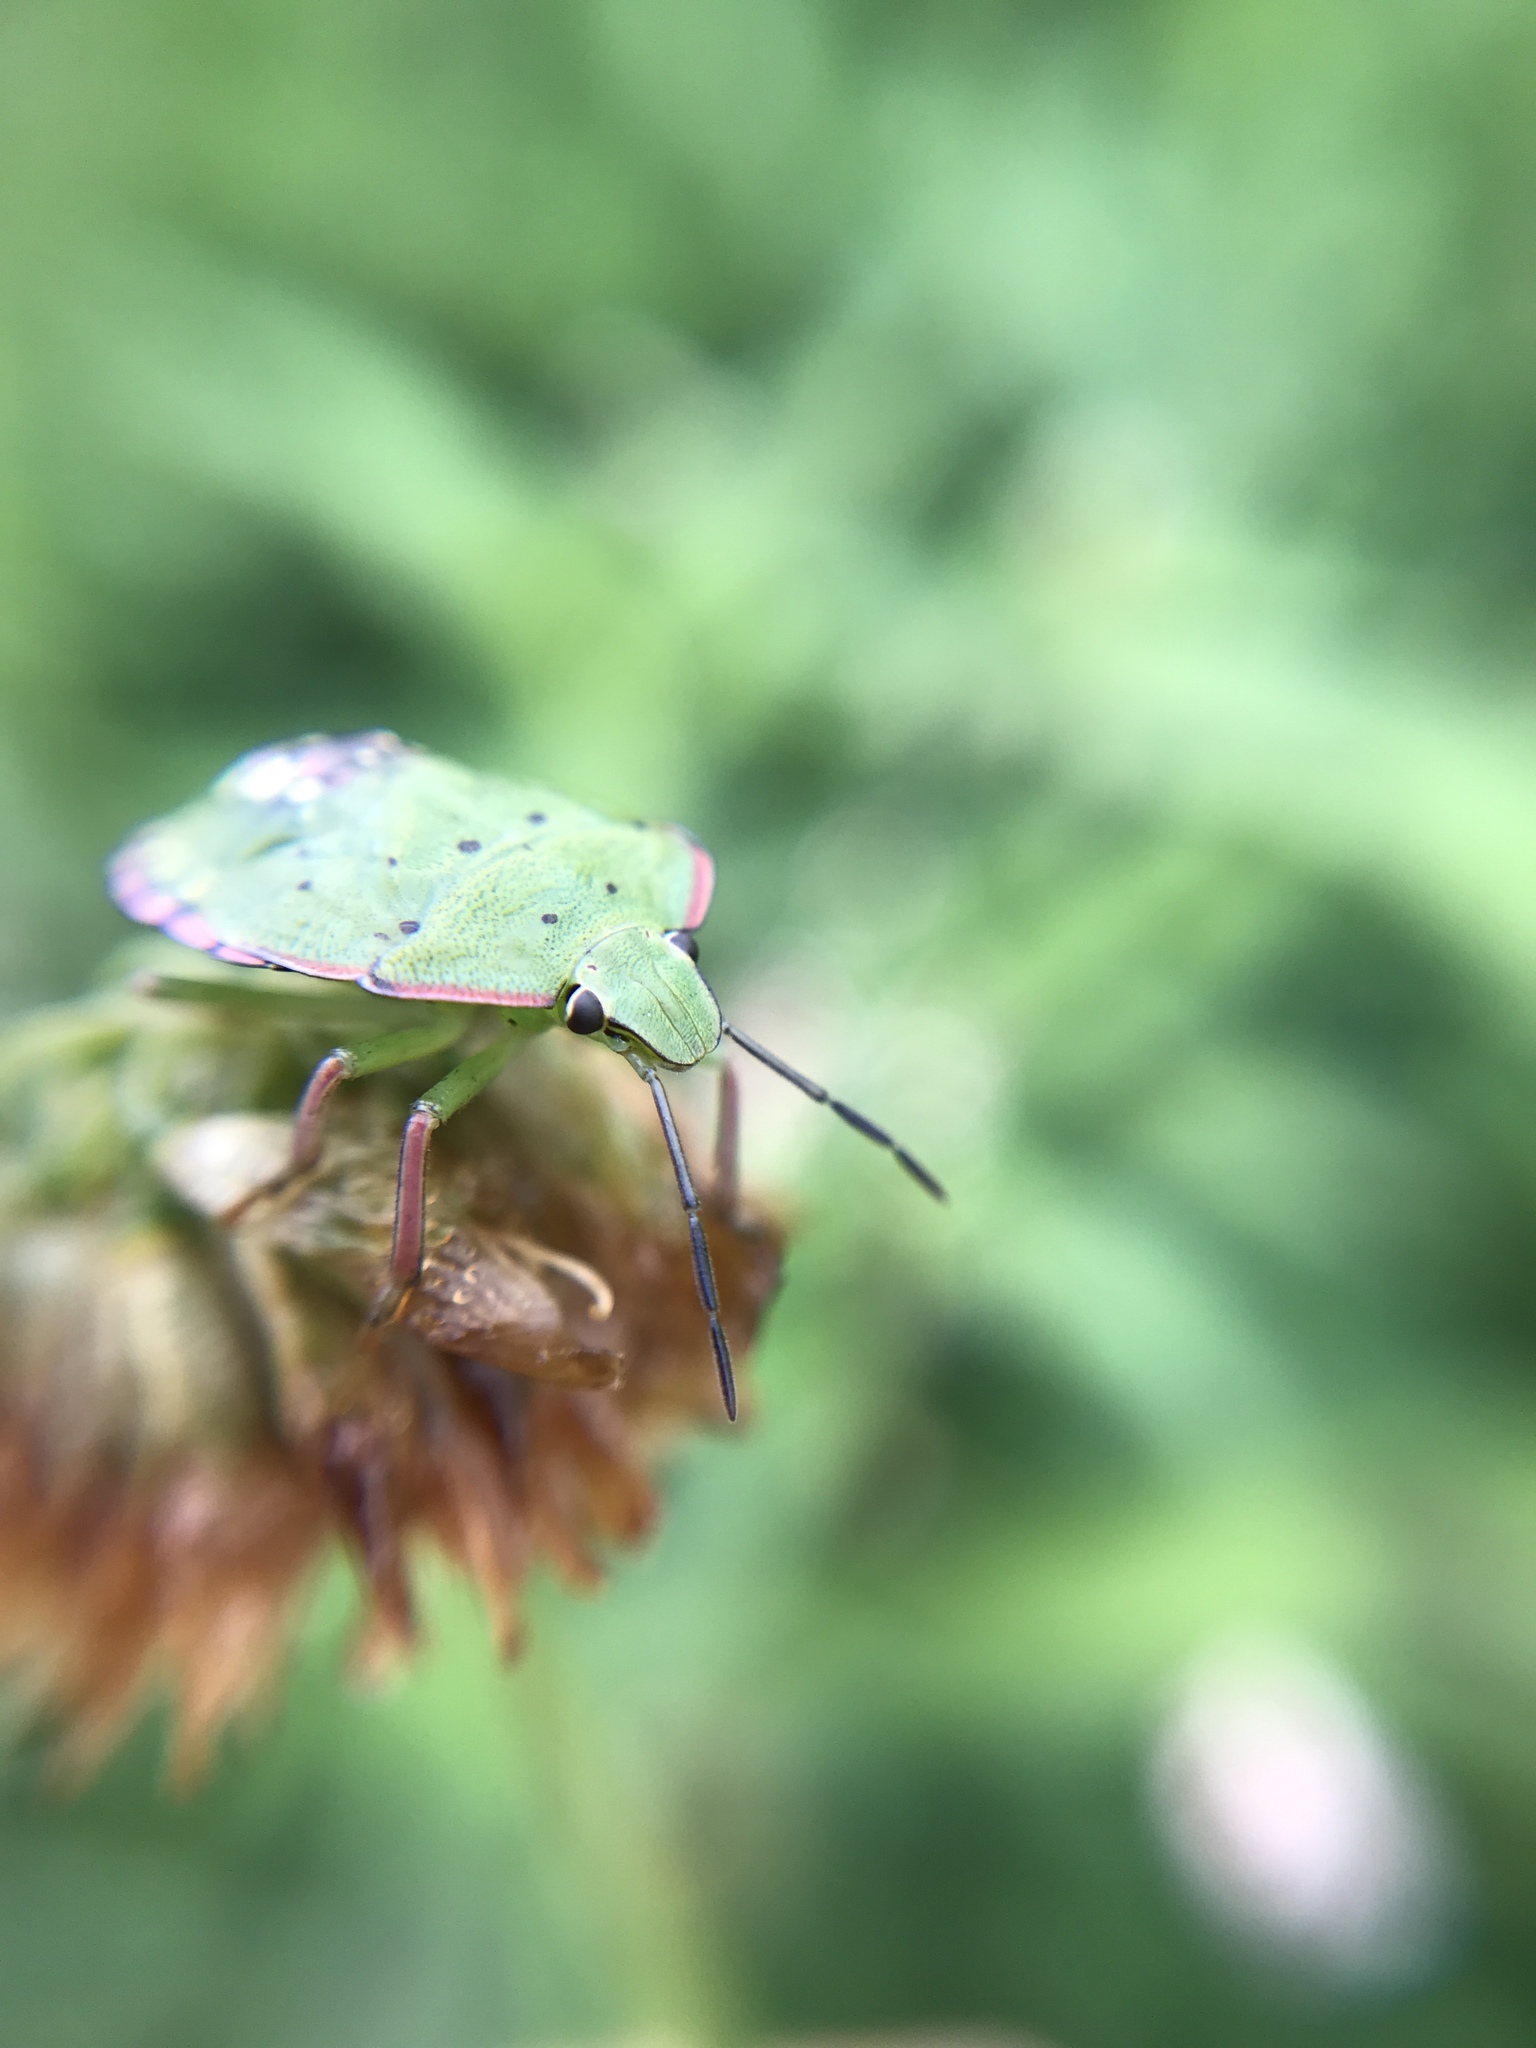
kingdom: Animalia
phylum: Arthropoda
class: Insecta
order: Hemiptera
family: Pentatomidae
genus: Nezara
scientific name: Nezara viridula
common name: Southern green stink bug
